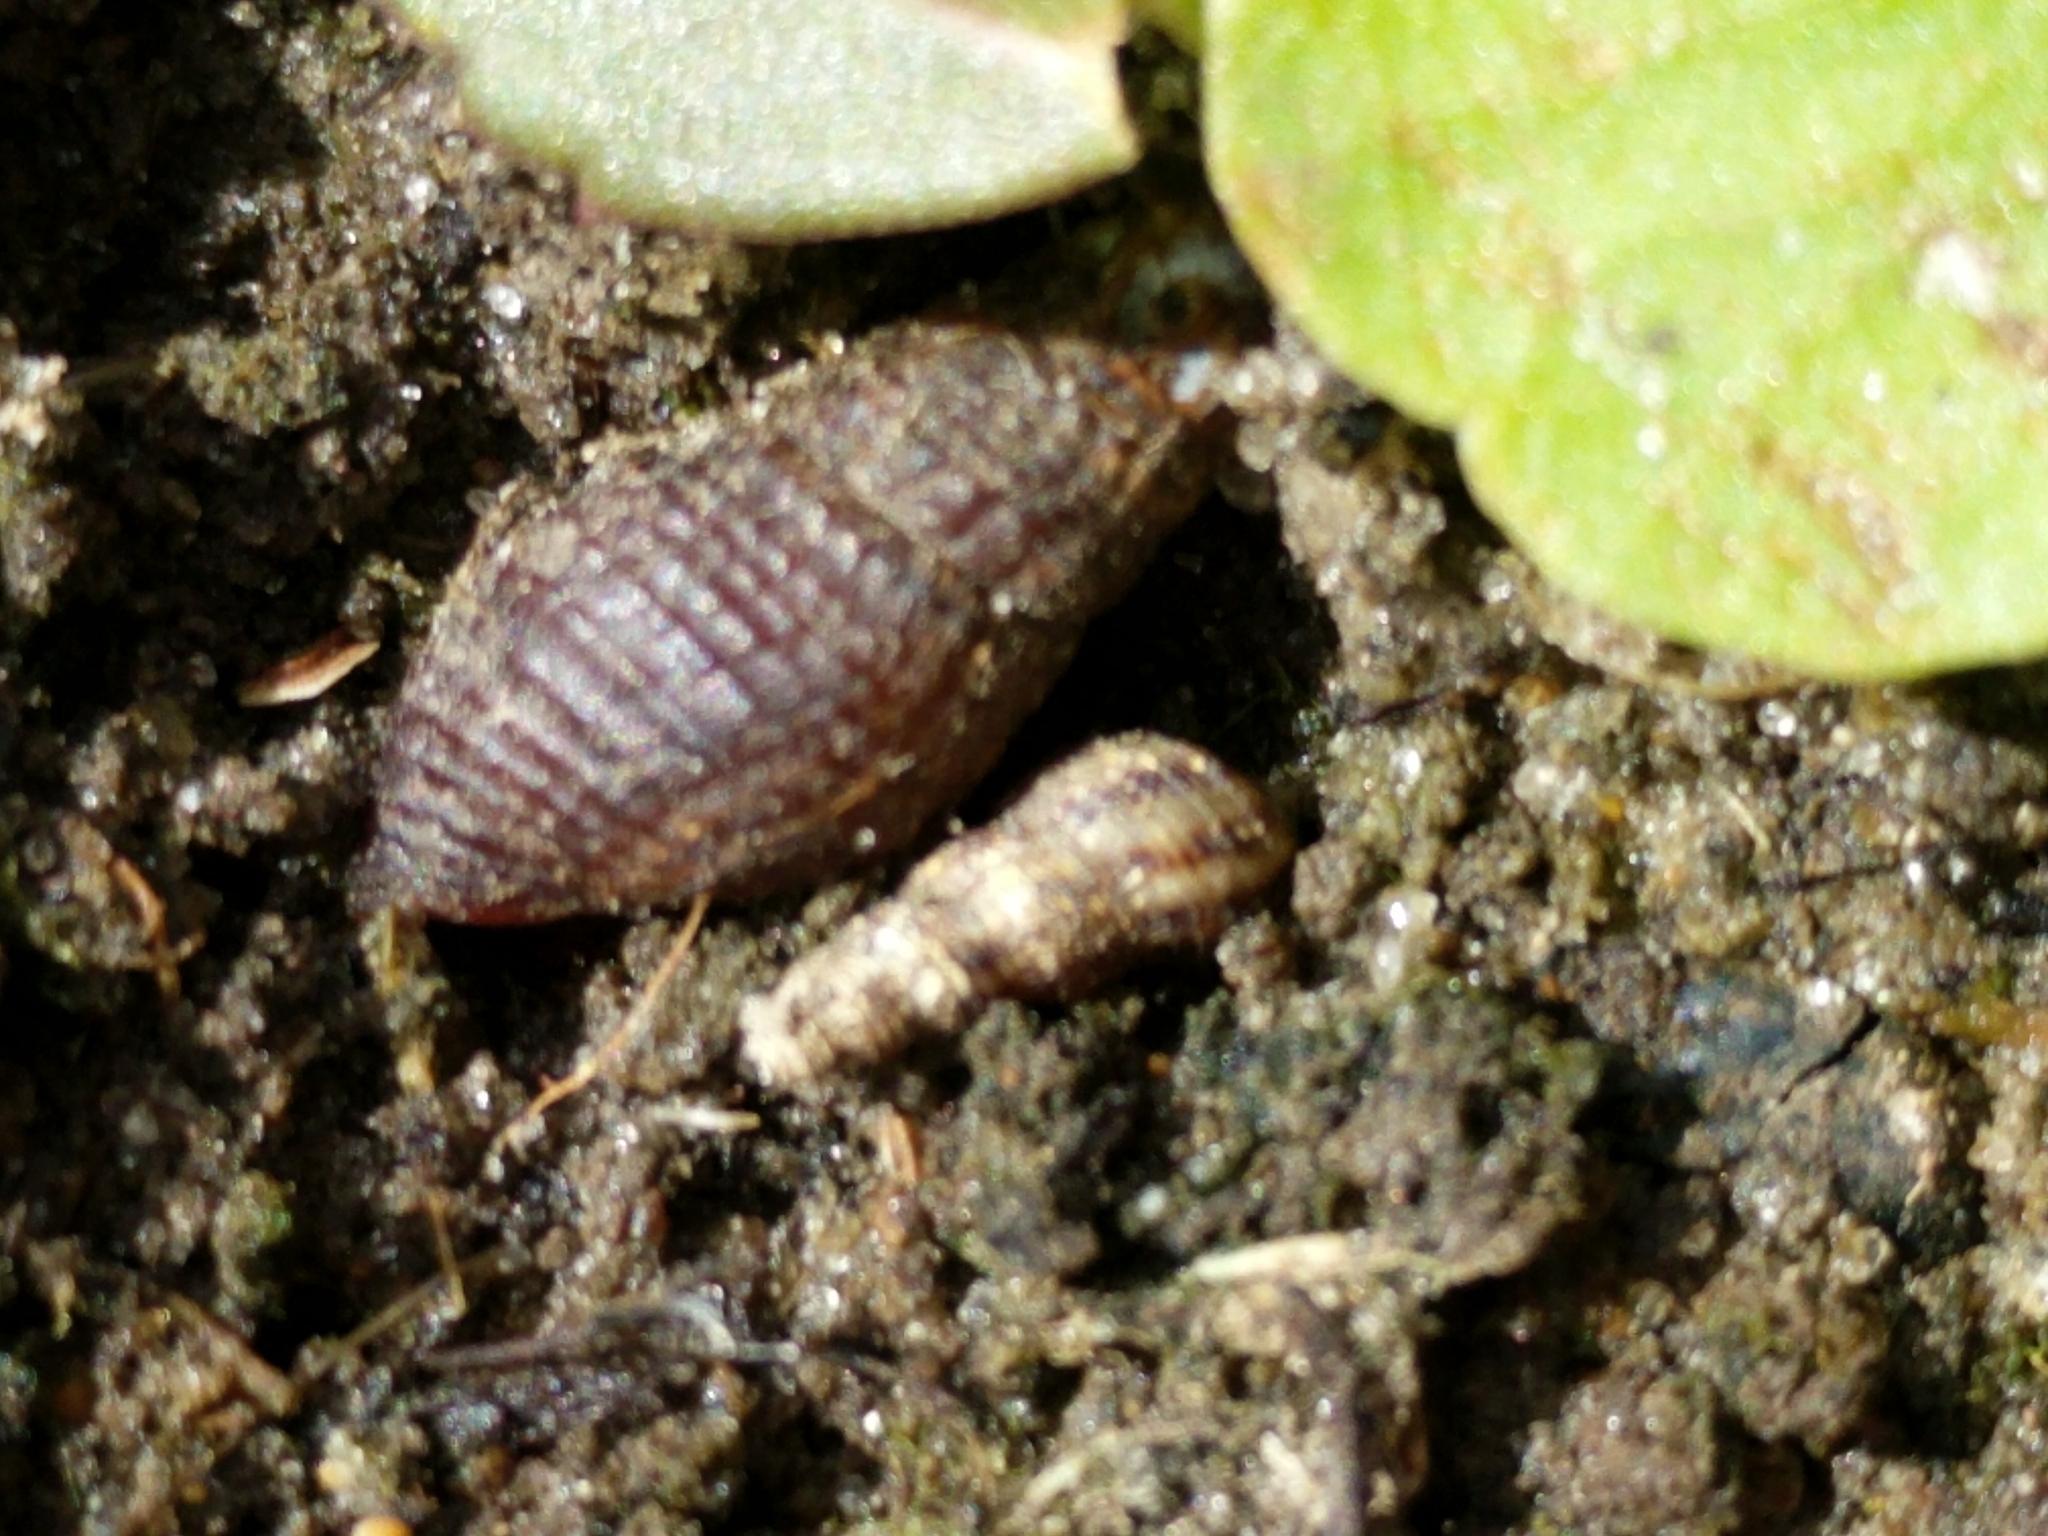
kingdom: Animalia
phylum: Mollusca
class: Gastropoda
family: Thiaridae
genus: Tarebia
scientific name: Tarebia granifera
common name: Quilted melania
